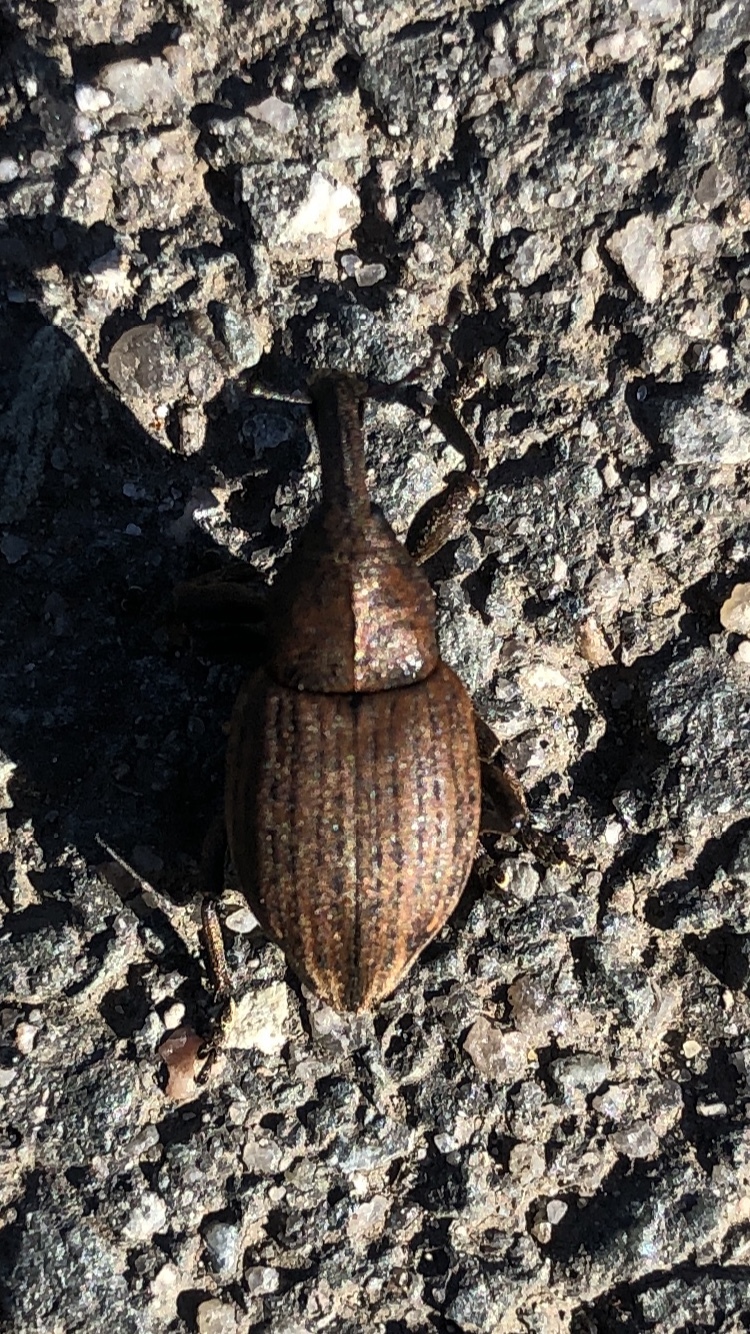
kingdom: Animalia
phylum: Arthropoda
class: Insecta
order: Coleoptera
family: Curculionidae
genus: Lepyrus
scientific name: Lepyrus capucinus
